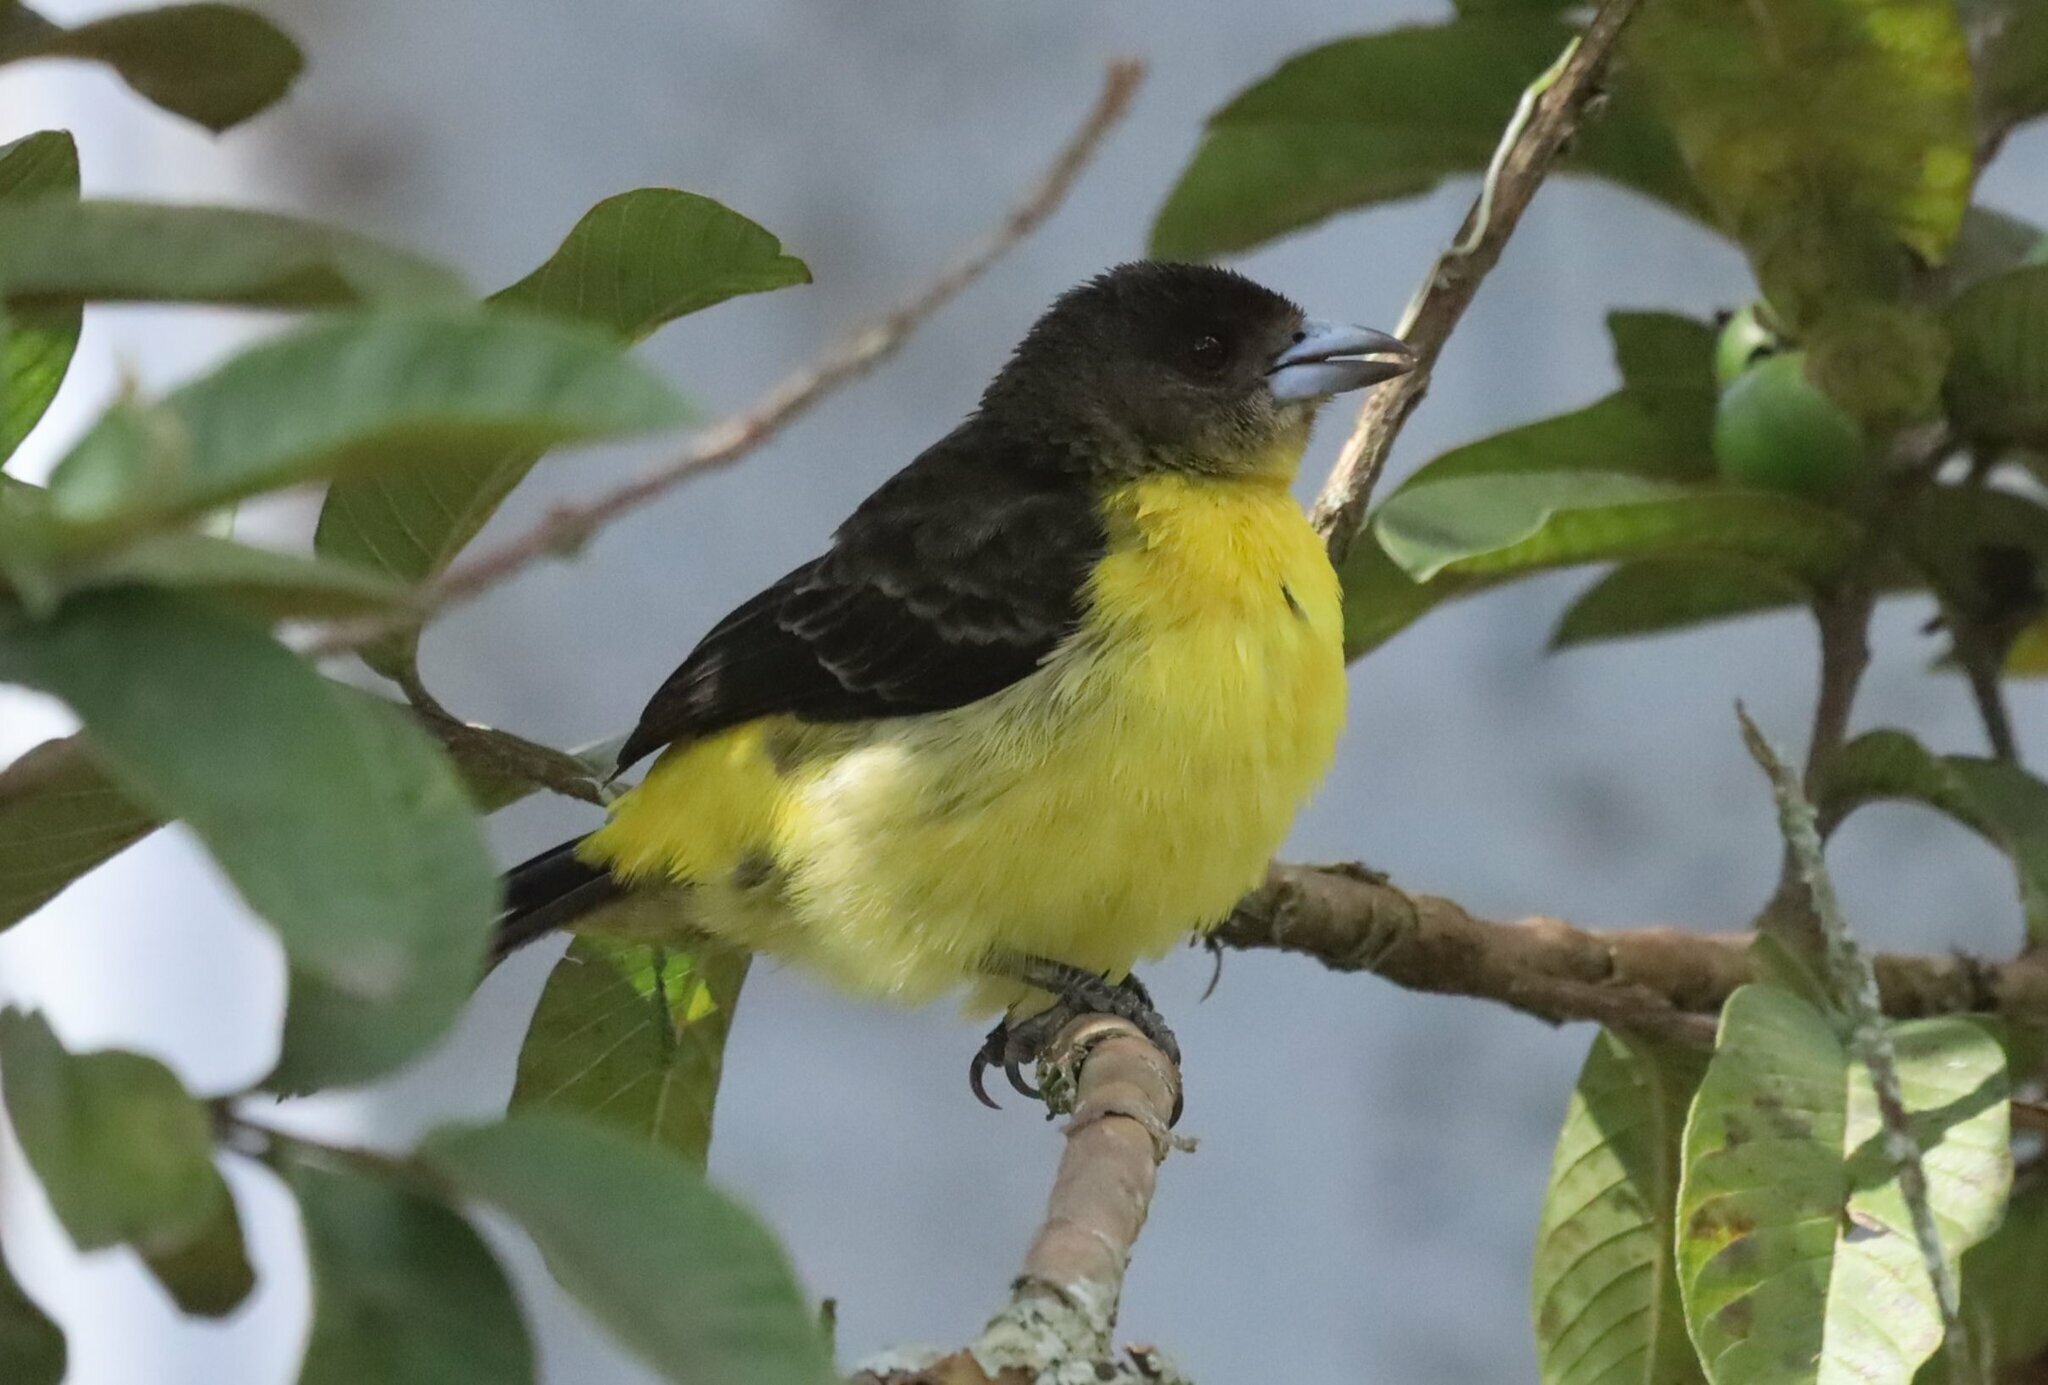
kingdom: Animalia
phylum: Chordata
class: Aves
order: Passeriformes
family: Thraupidae
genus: Ramphocelus
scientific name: Ramphocelus flammigerus
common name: Flame-rumped tanager
